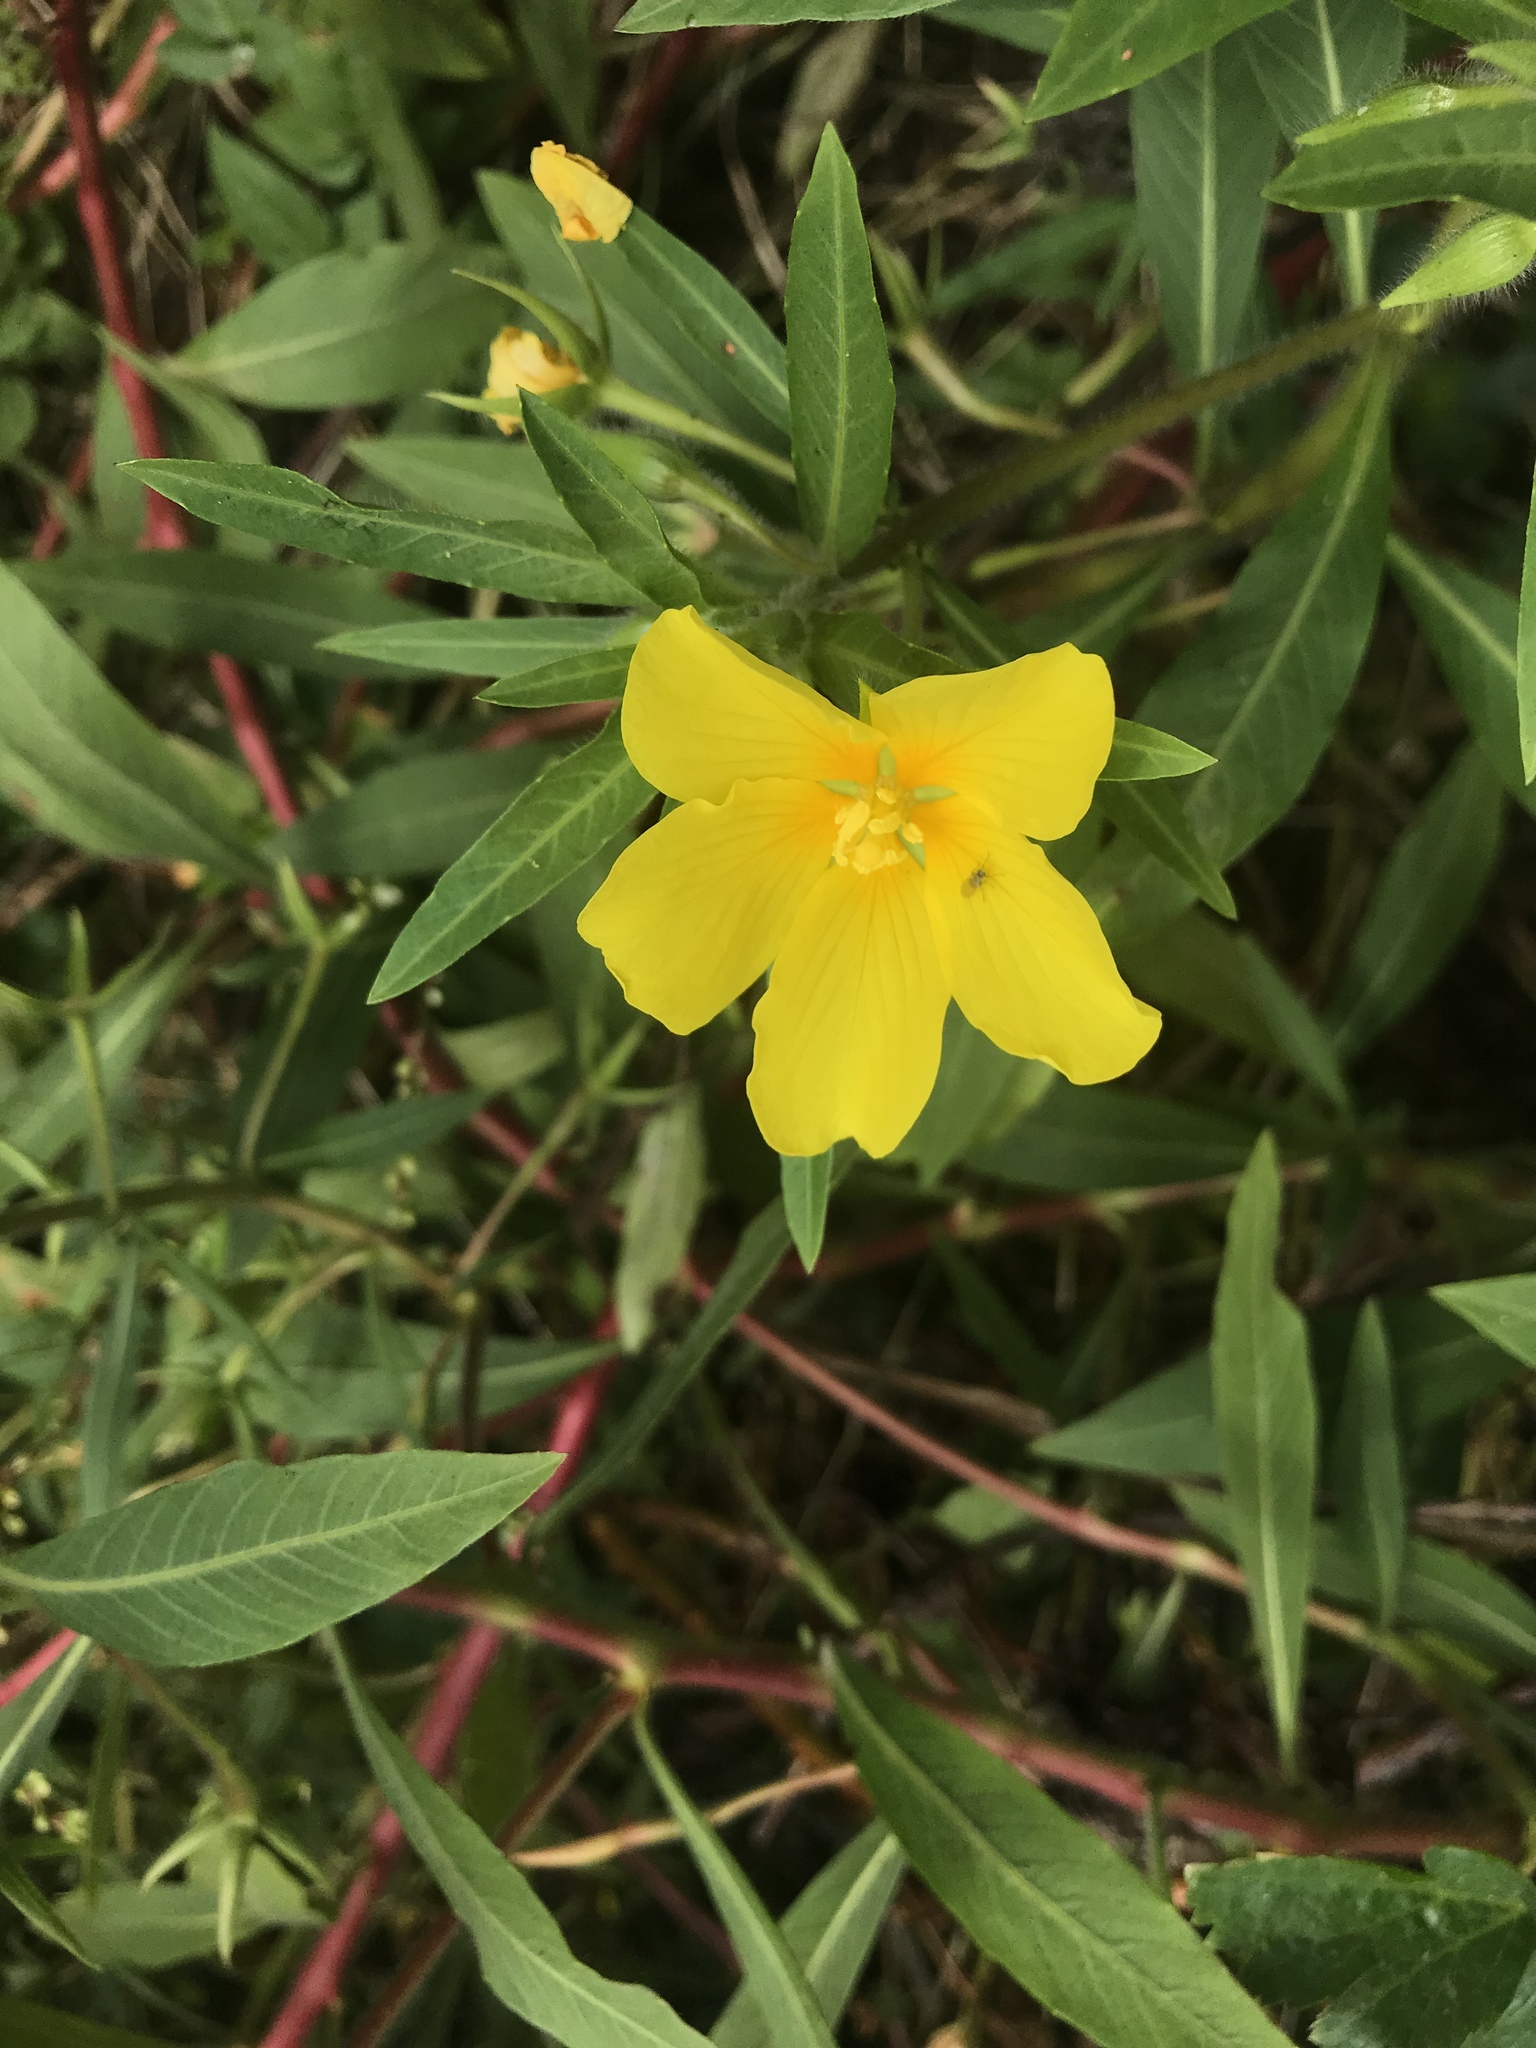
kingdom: Plantae
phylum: Tracheophyta
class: Magnoliopsida
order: Myrtales
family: Onagraceae
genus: Ludwigia
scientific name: Ludwigia peploides
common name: Floating primrose-willow
